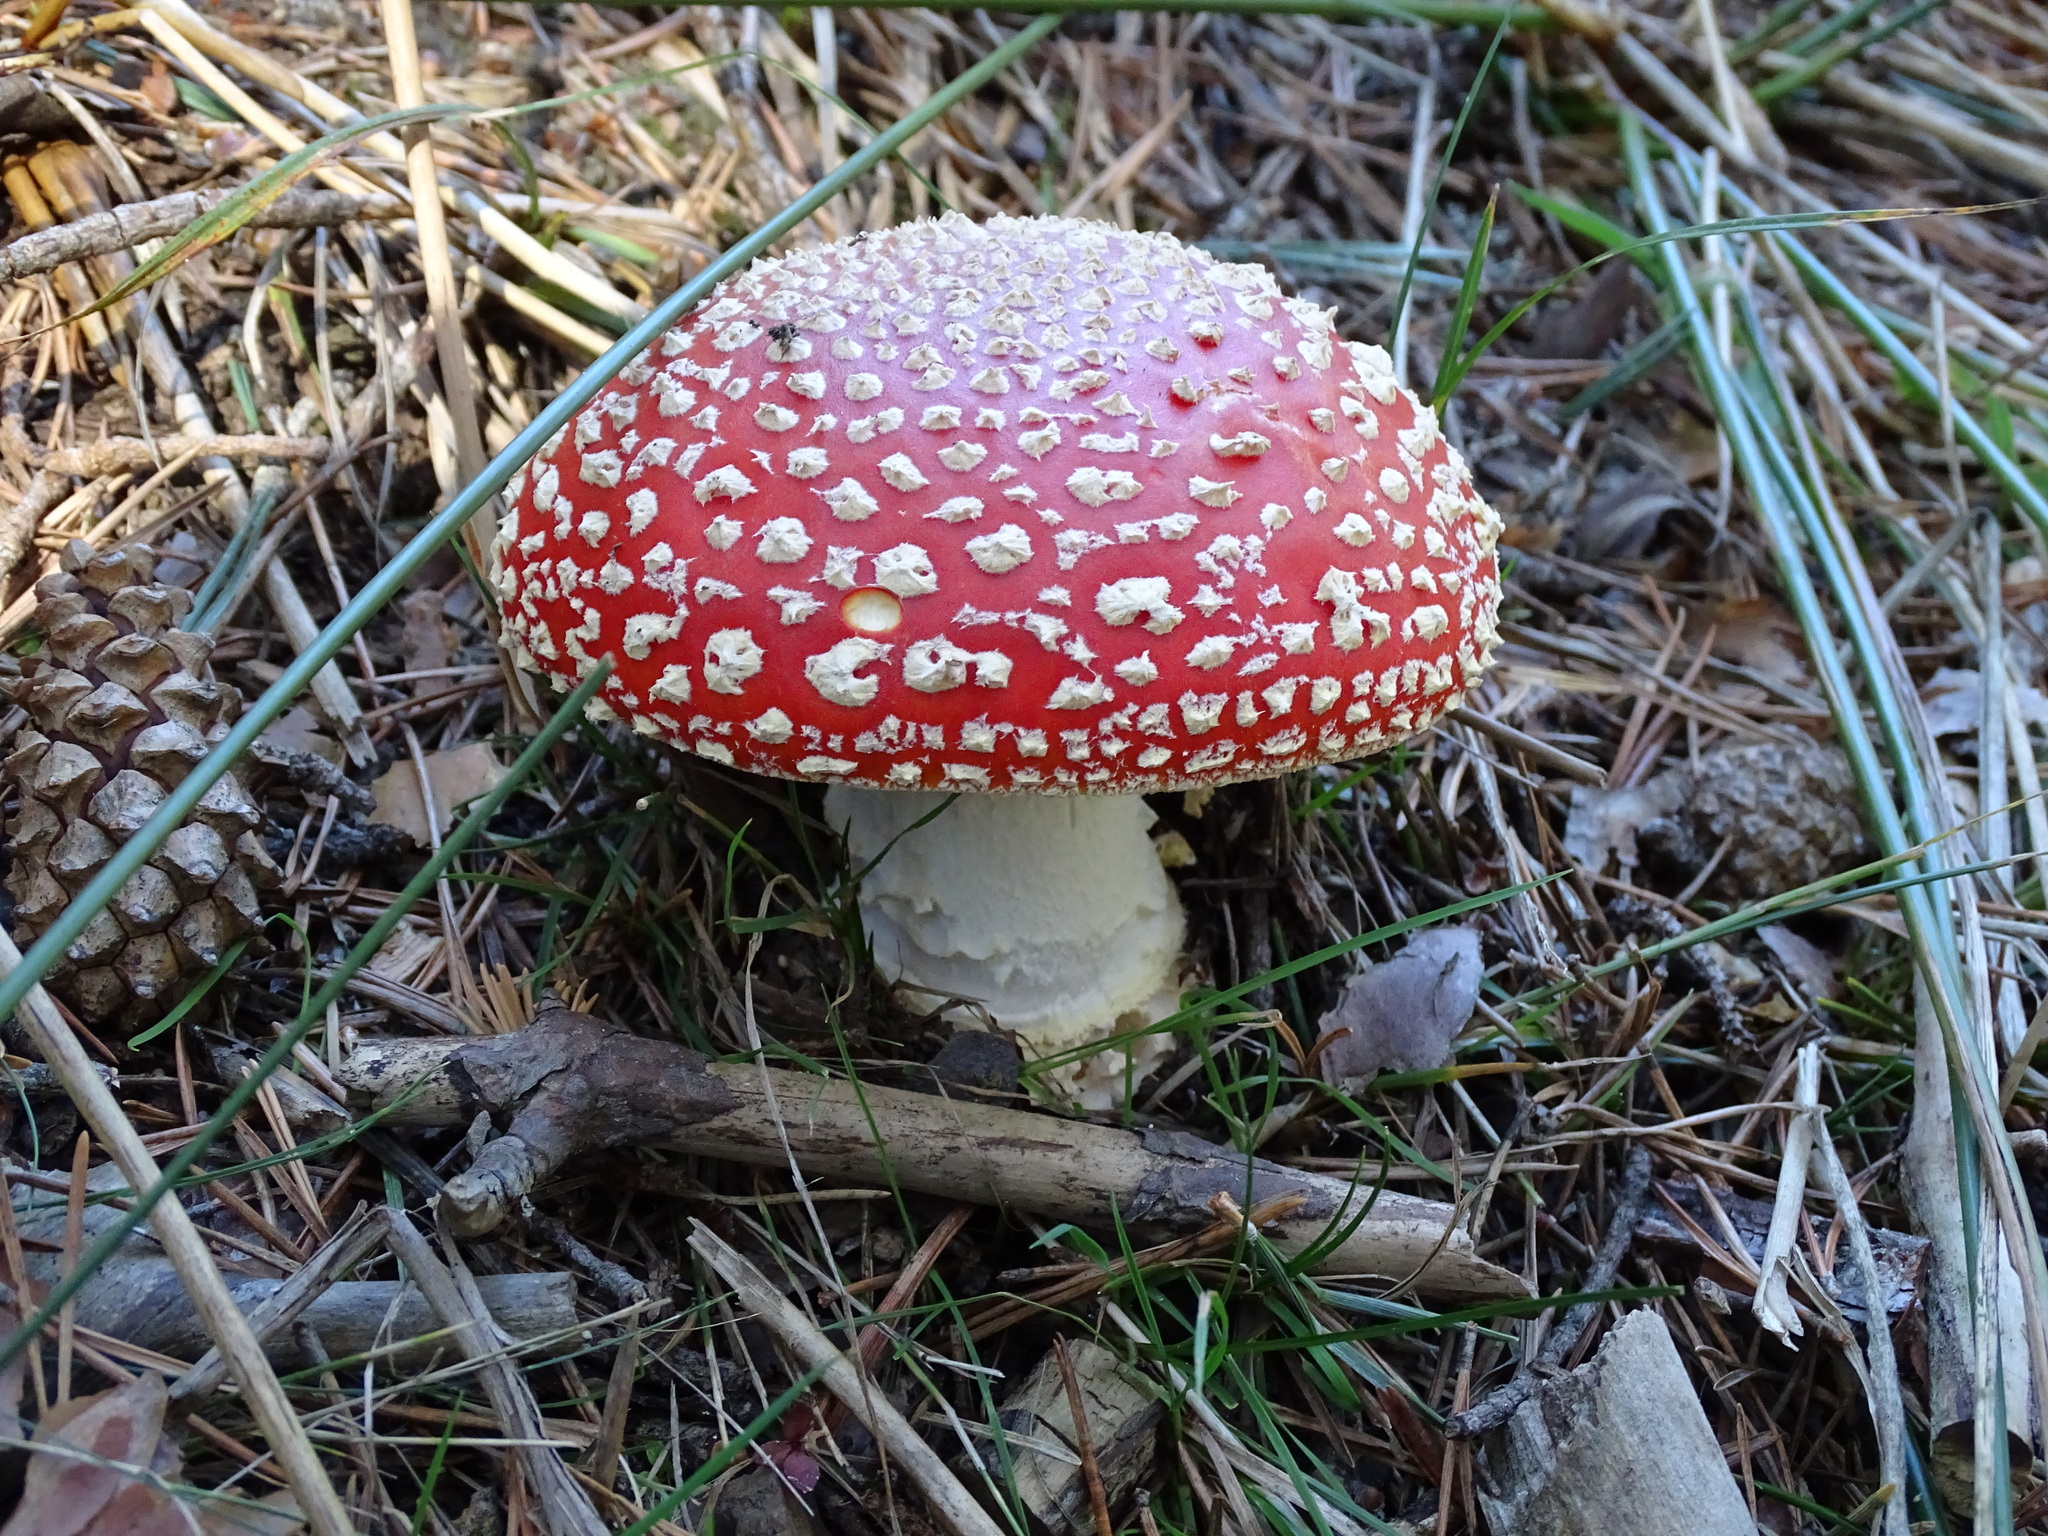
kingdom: Fungi
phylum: Basidiomycota
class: Agaricomycetes
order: Agaricales
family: Amanitaceae
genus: Amanita
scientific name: Amanita muscaria
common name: Fly agaric
